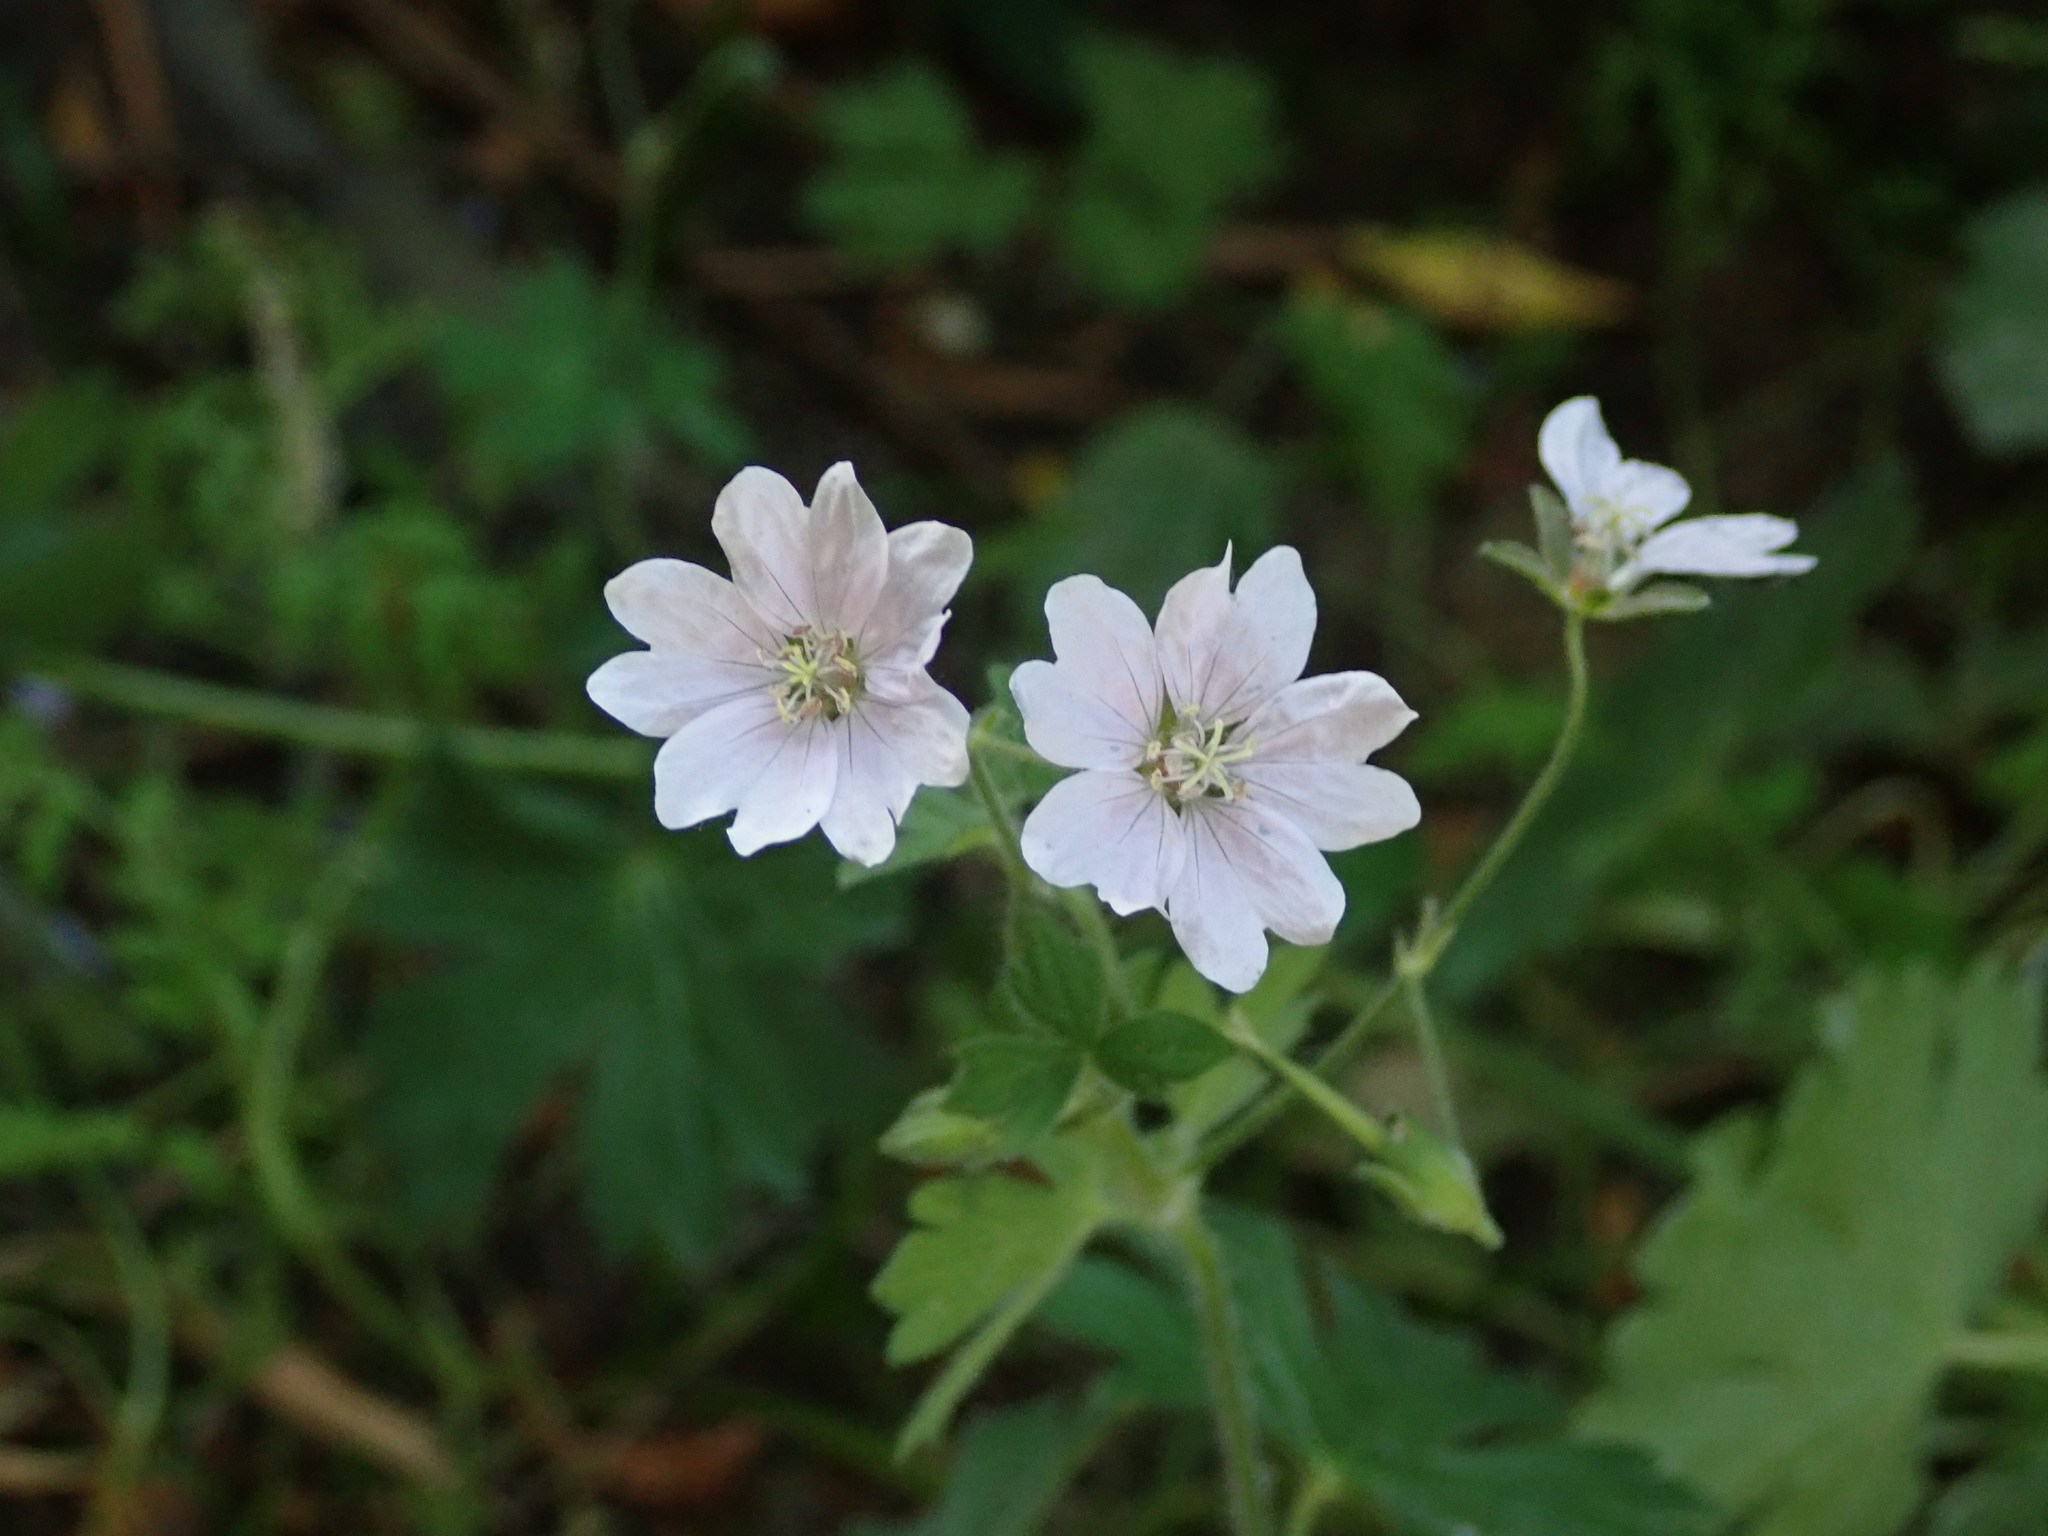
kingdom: Plantae
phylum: Tracheophyta
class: Magnoliopsida
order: Geraniales
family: Geraniaceae
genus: Geranium
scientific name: Geranium pyrenaicum
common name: Hedgerow crane's-bill
